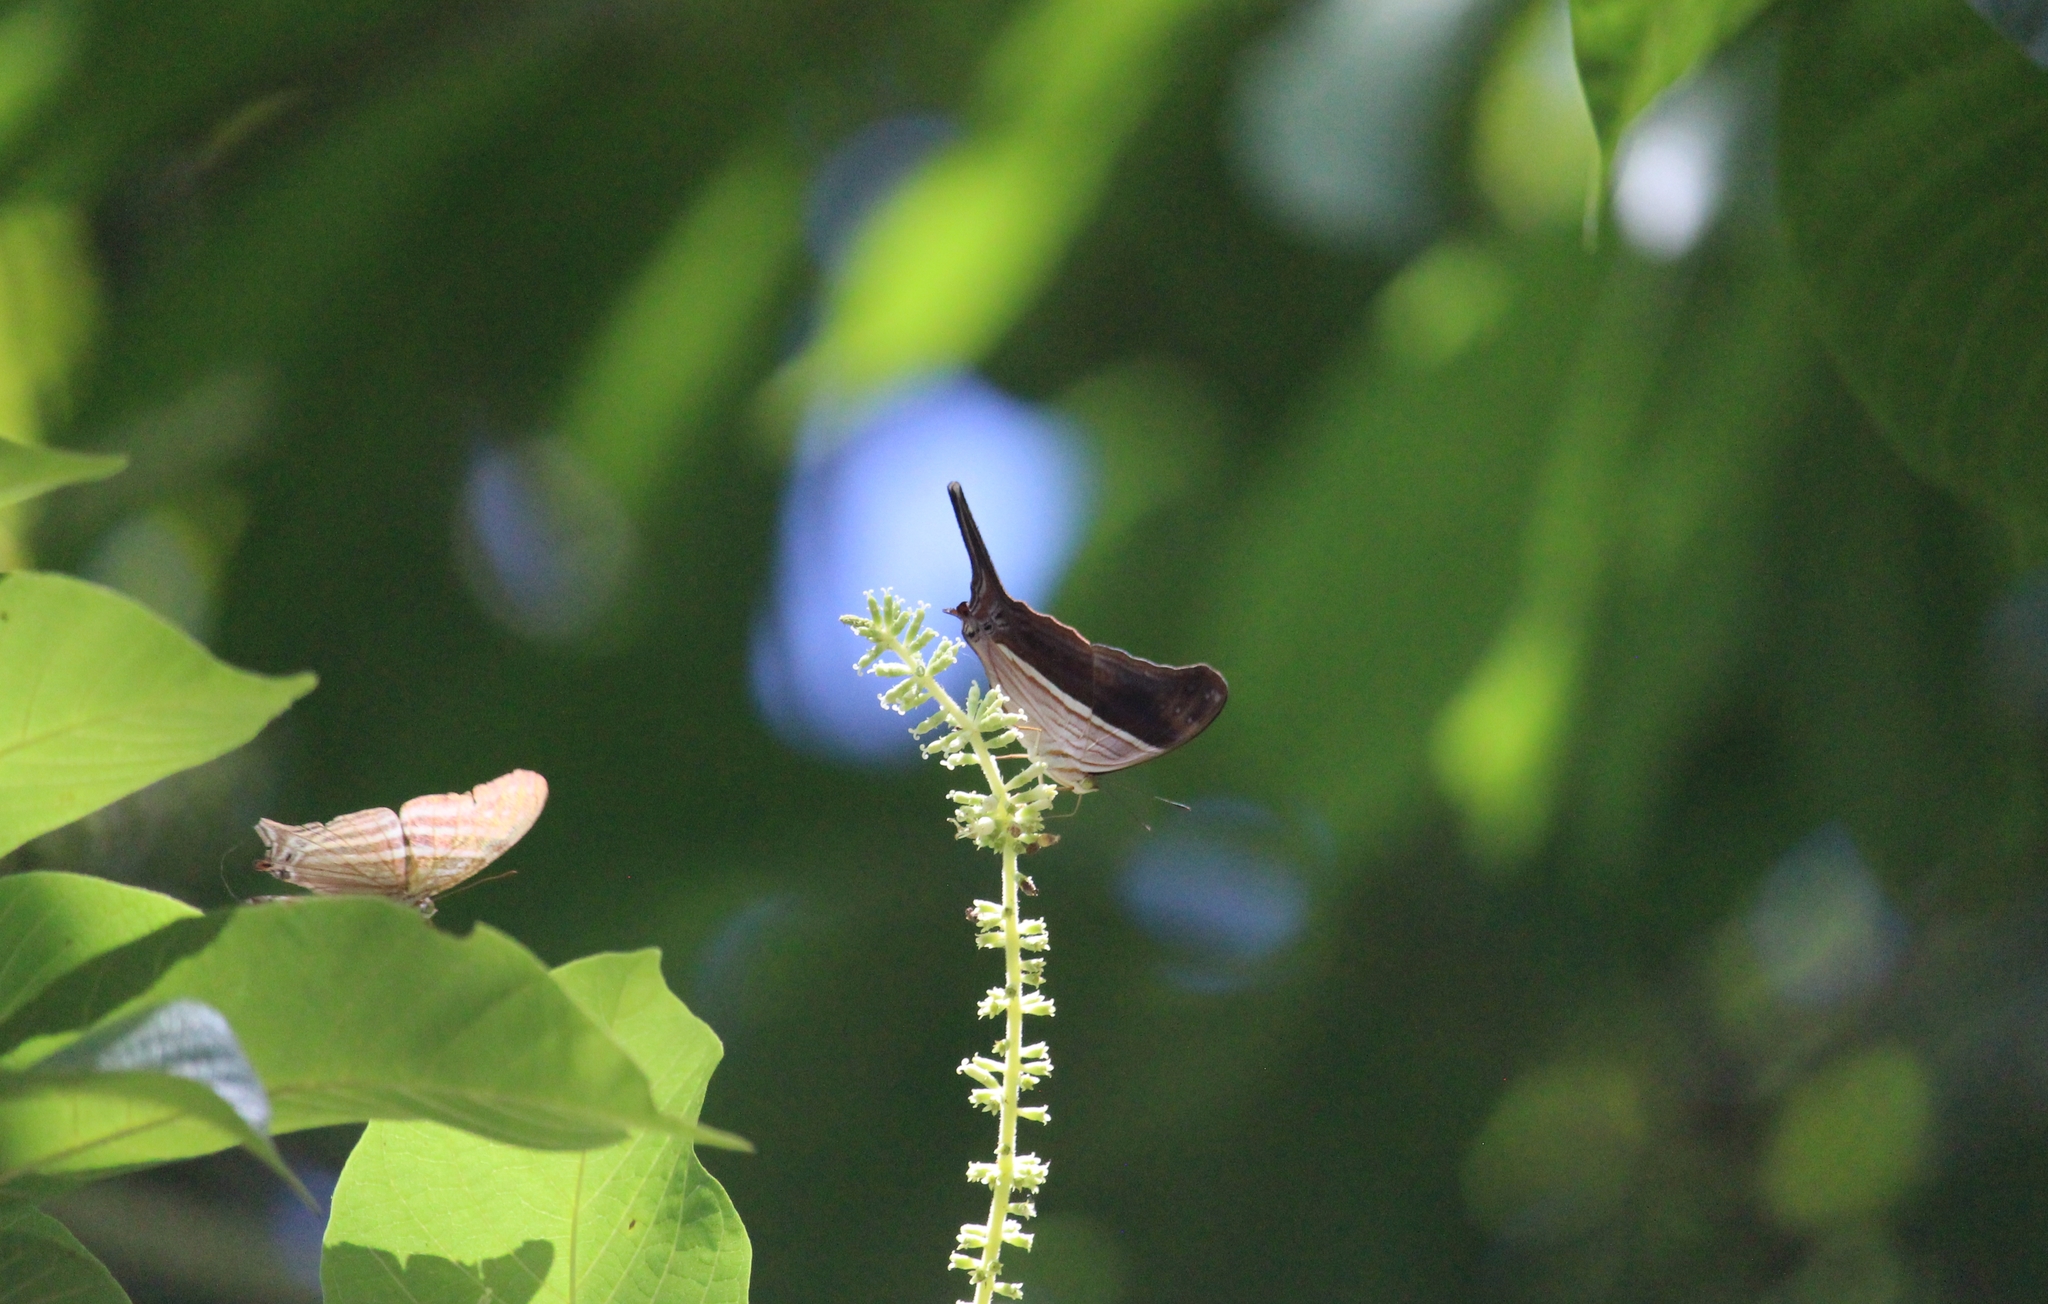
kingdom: Animalia
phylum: Arthropoda
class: Insecta
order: Lepidoptera
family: Nymphalidae
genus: Marpesia
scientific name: Marpesia chiron
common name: Many-banded daggerwing
